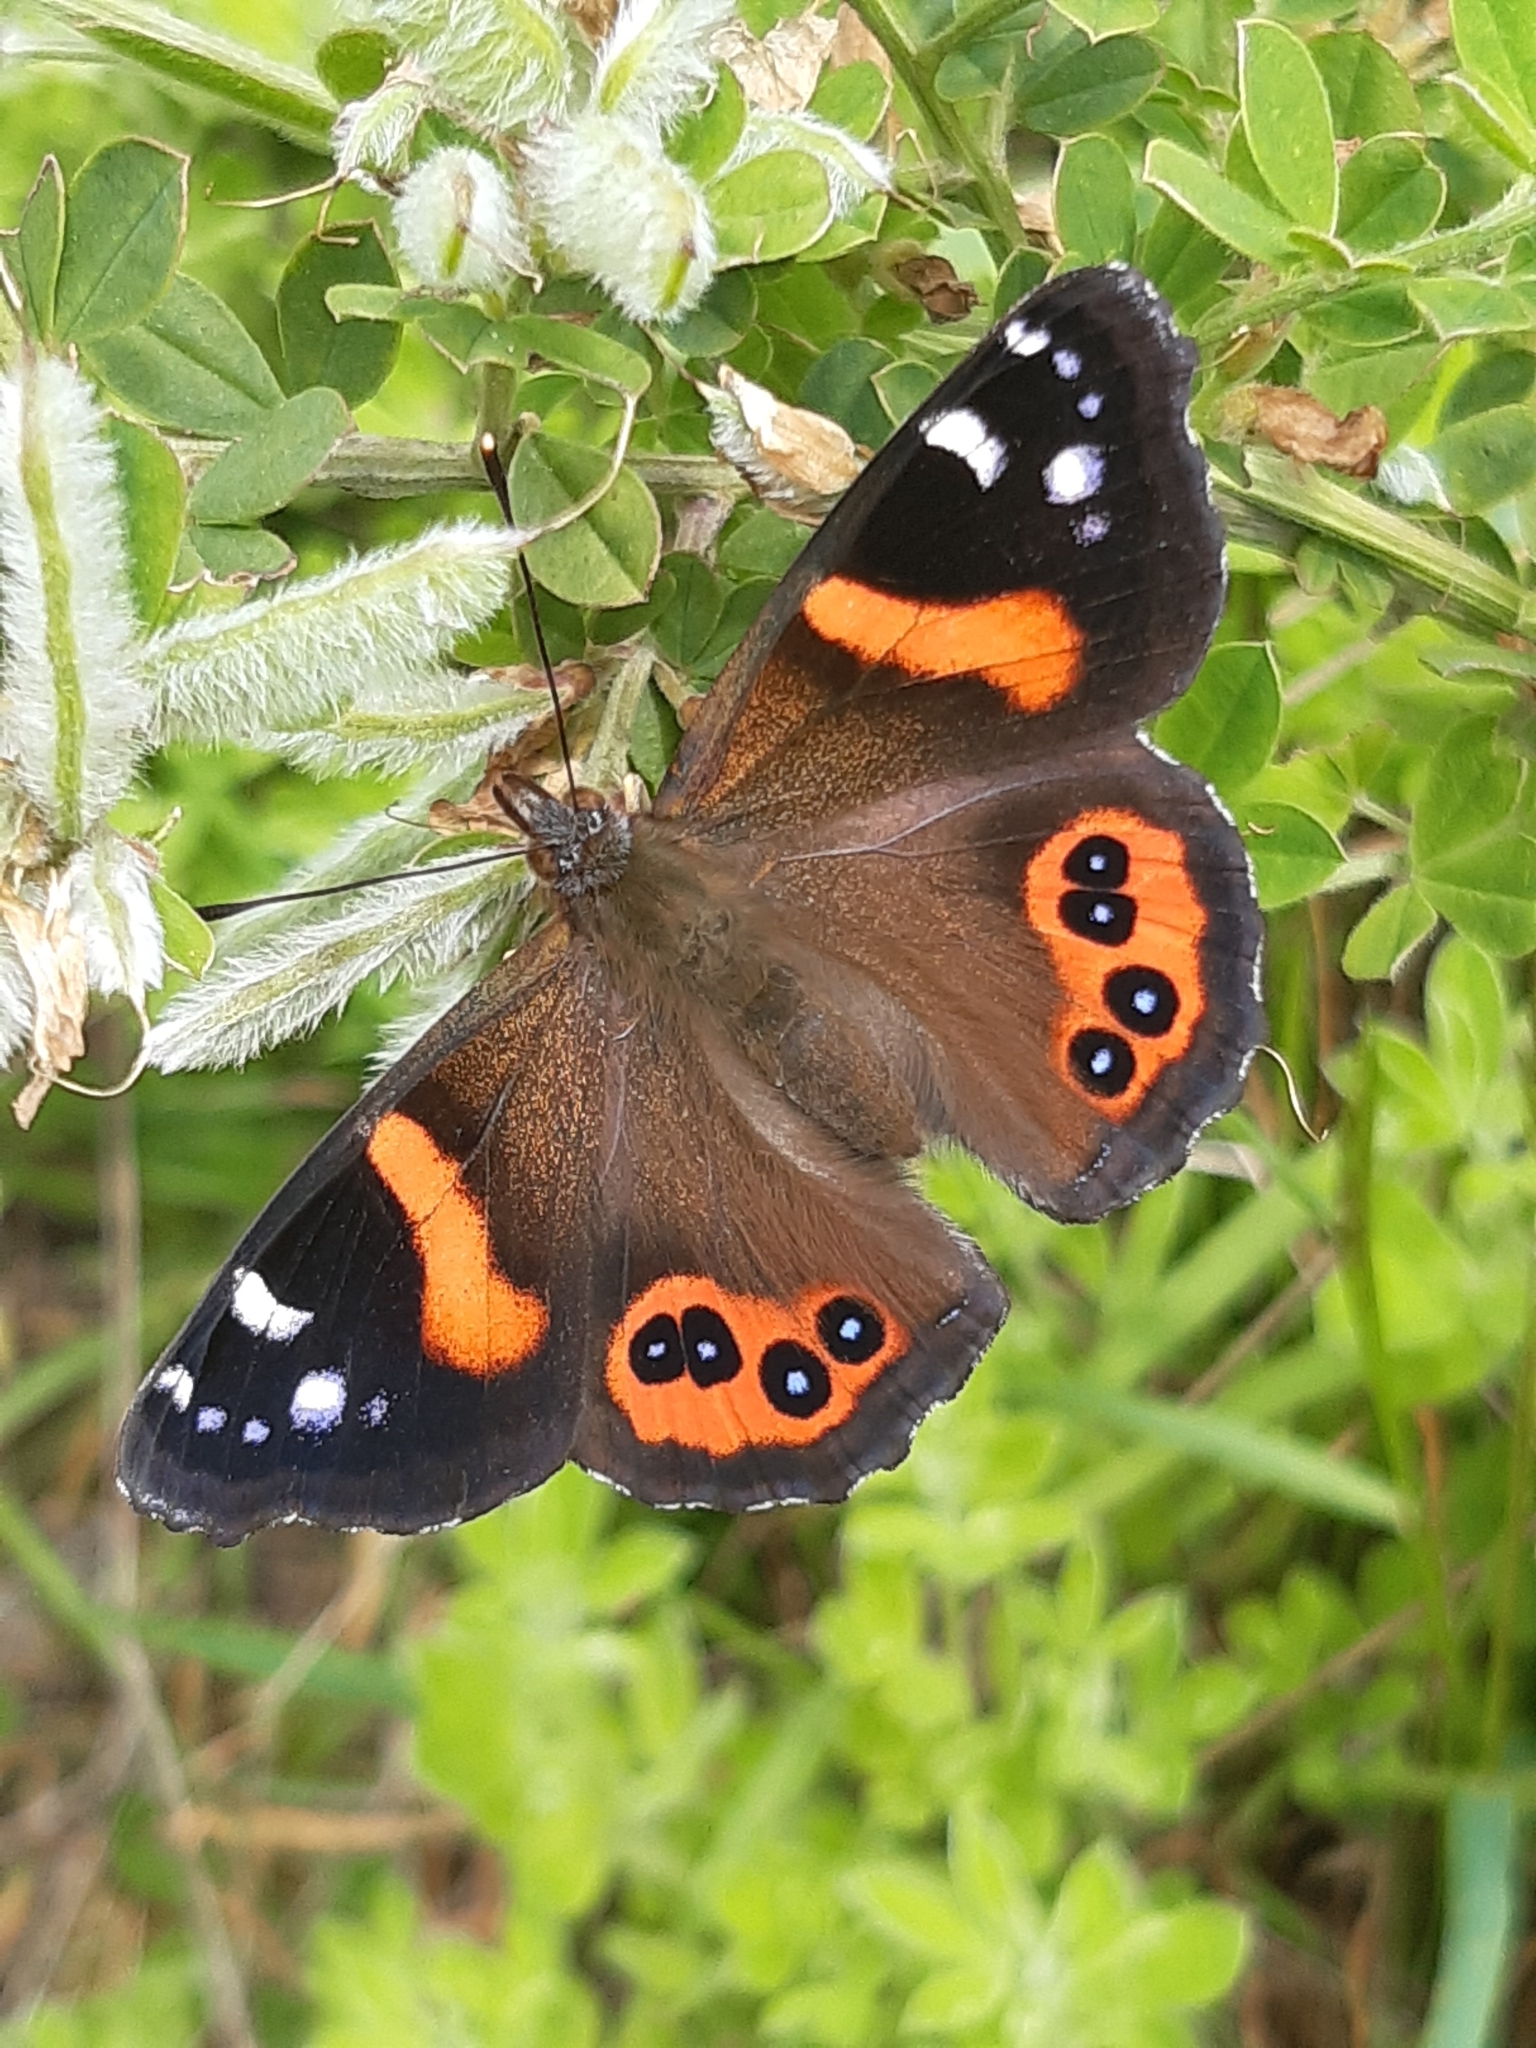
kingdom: Animalia
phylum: Arthropoda
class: Insecta
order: Lepidoptera
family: Nymphalidae
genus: Vanessa
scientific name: Vanessa gonerilla
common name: New zealand red admiral
